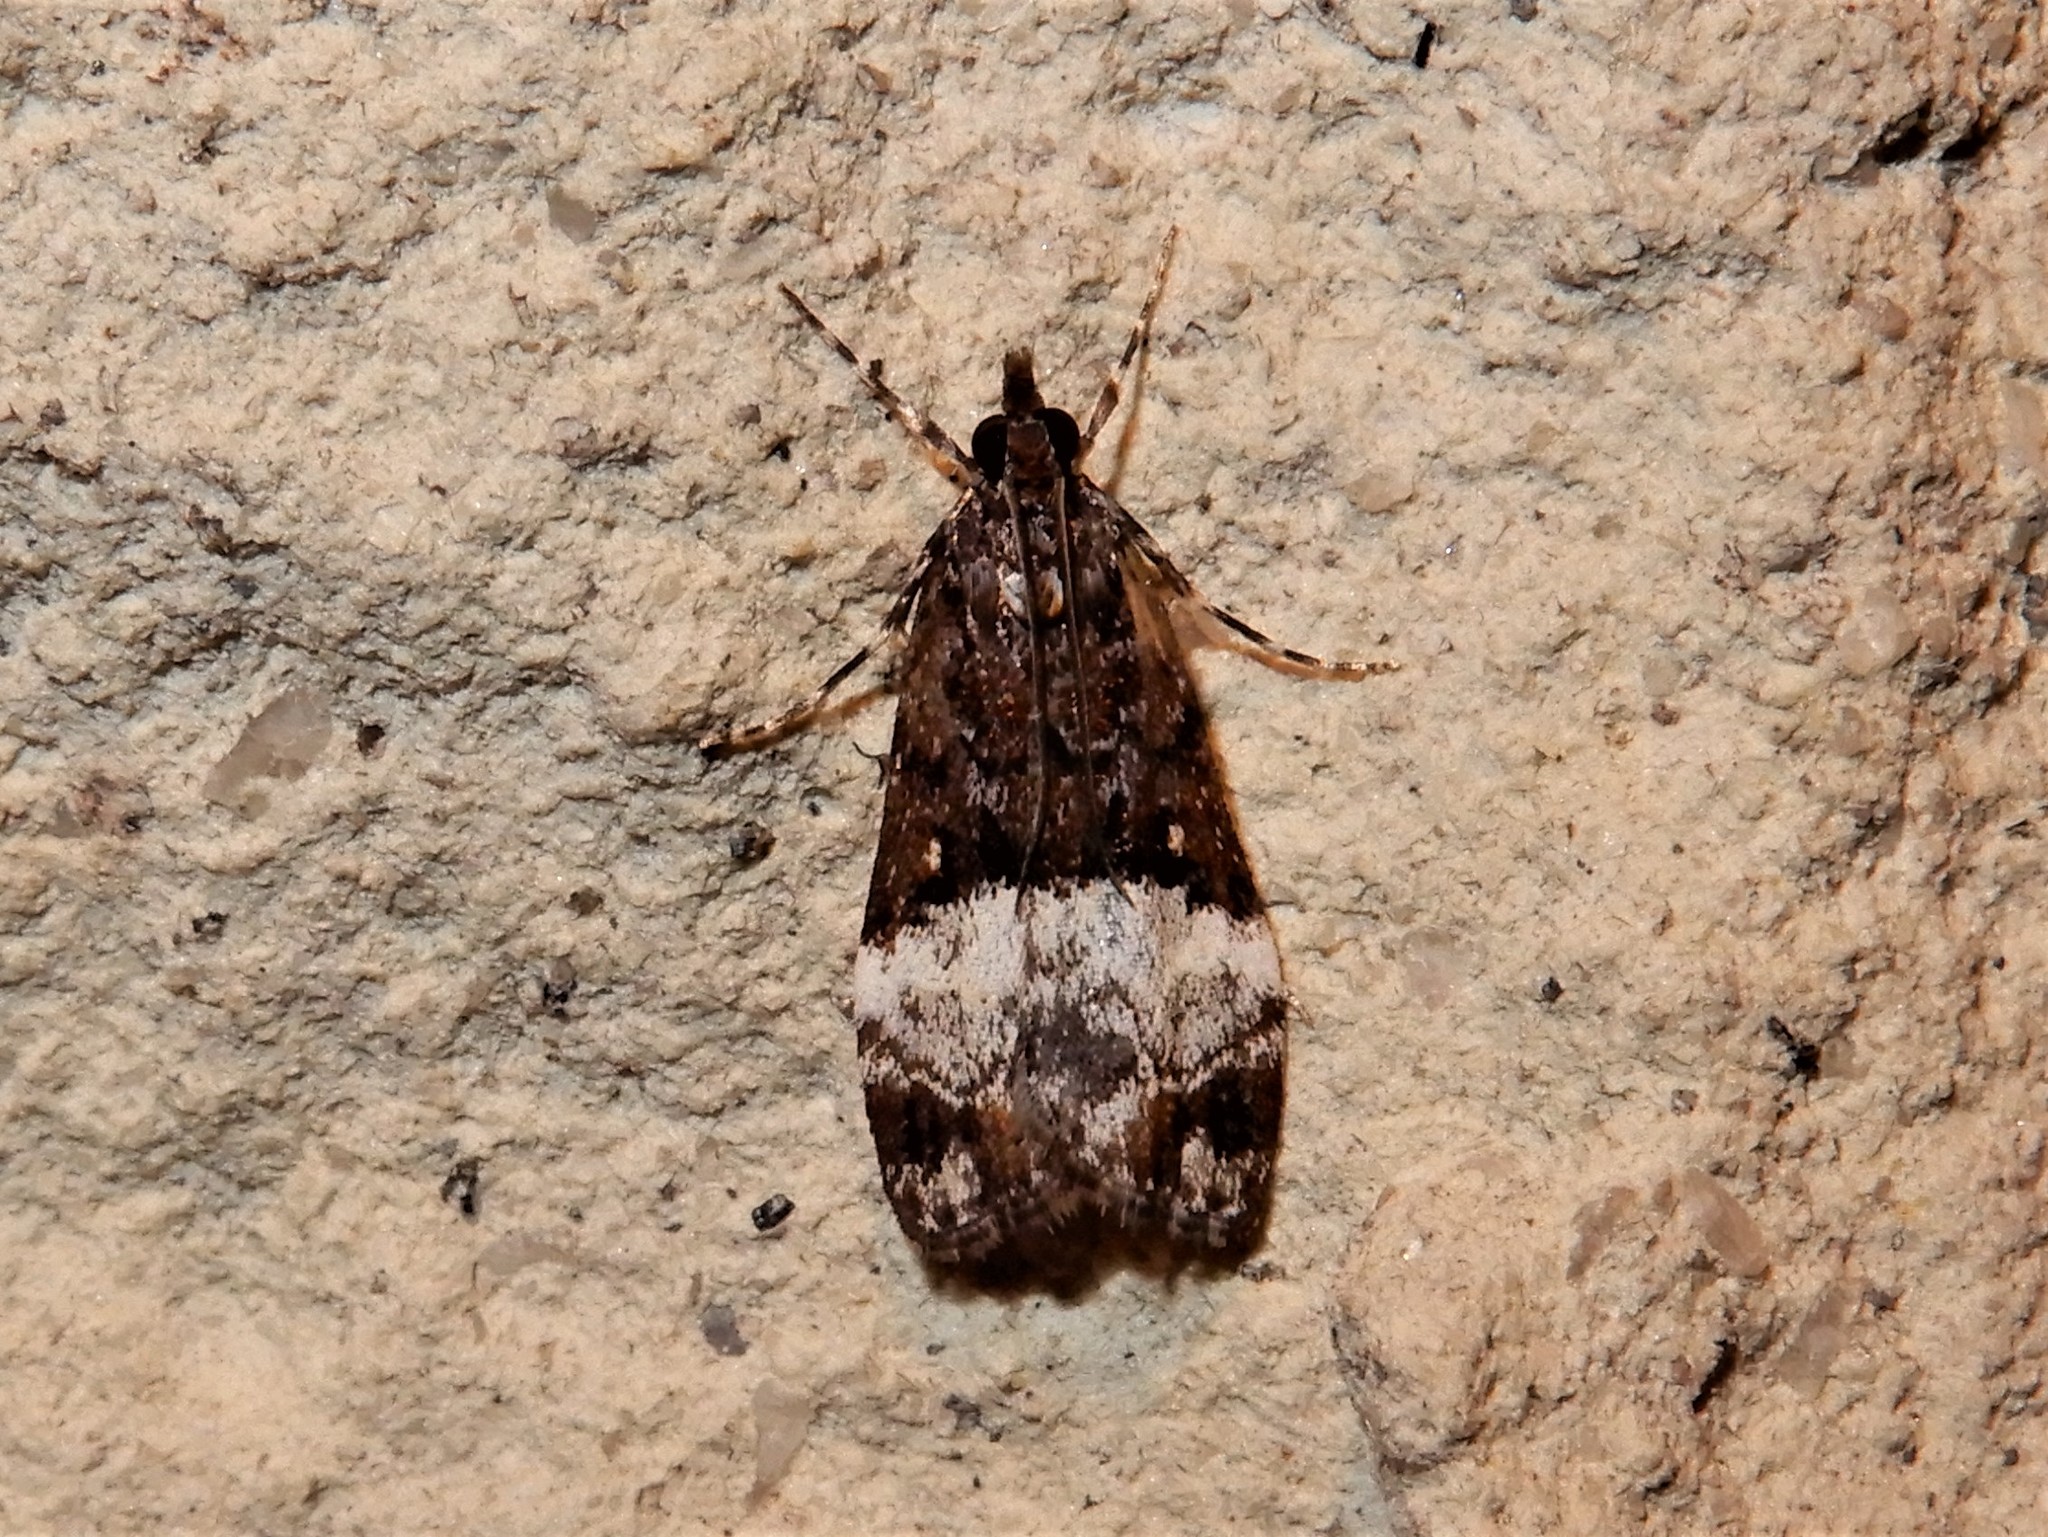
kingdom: Animalia
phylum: Arthropoda
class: Insecta
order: Lepidoptera
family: Crambidae
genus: Scoparia
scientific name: Scoparia minusculalis
